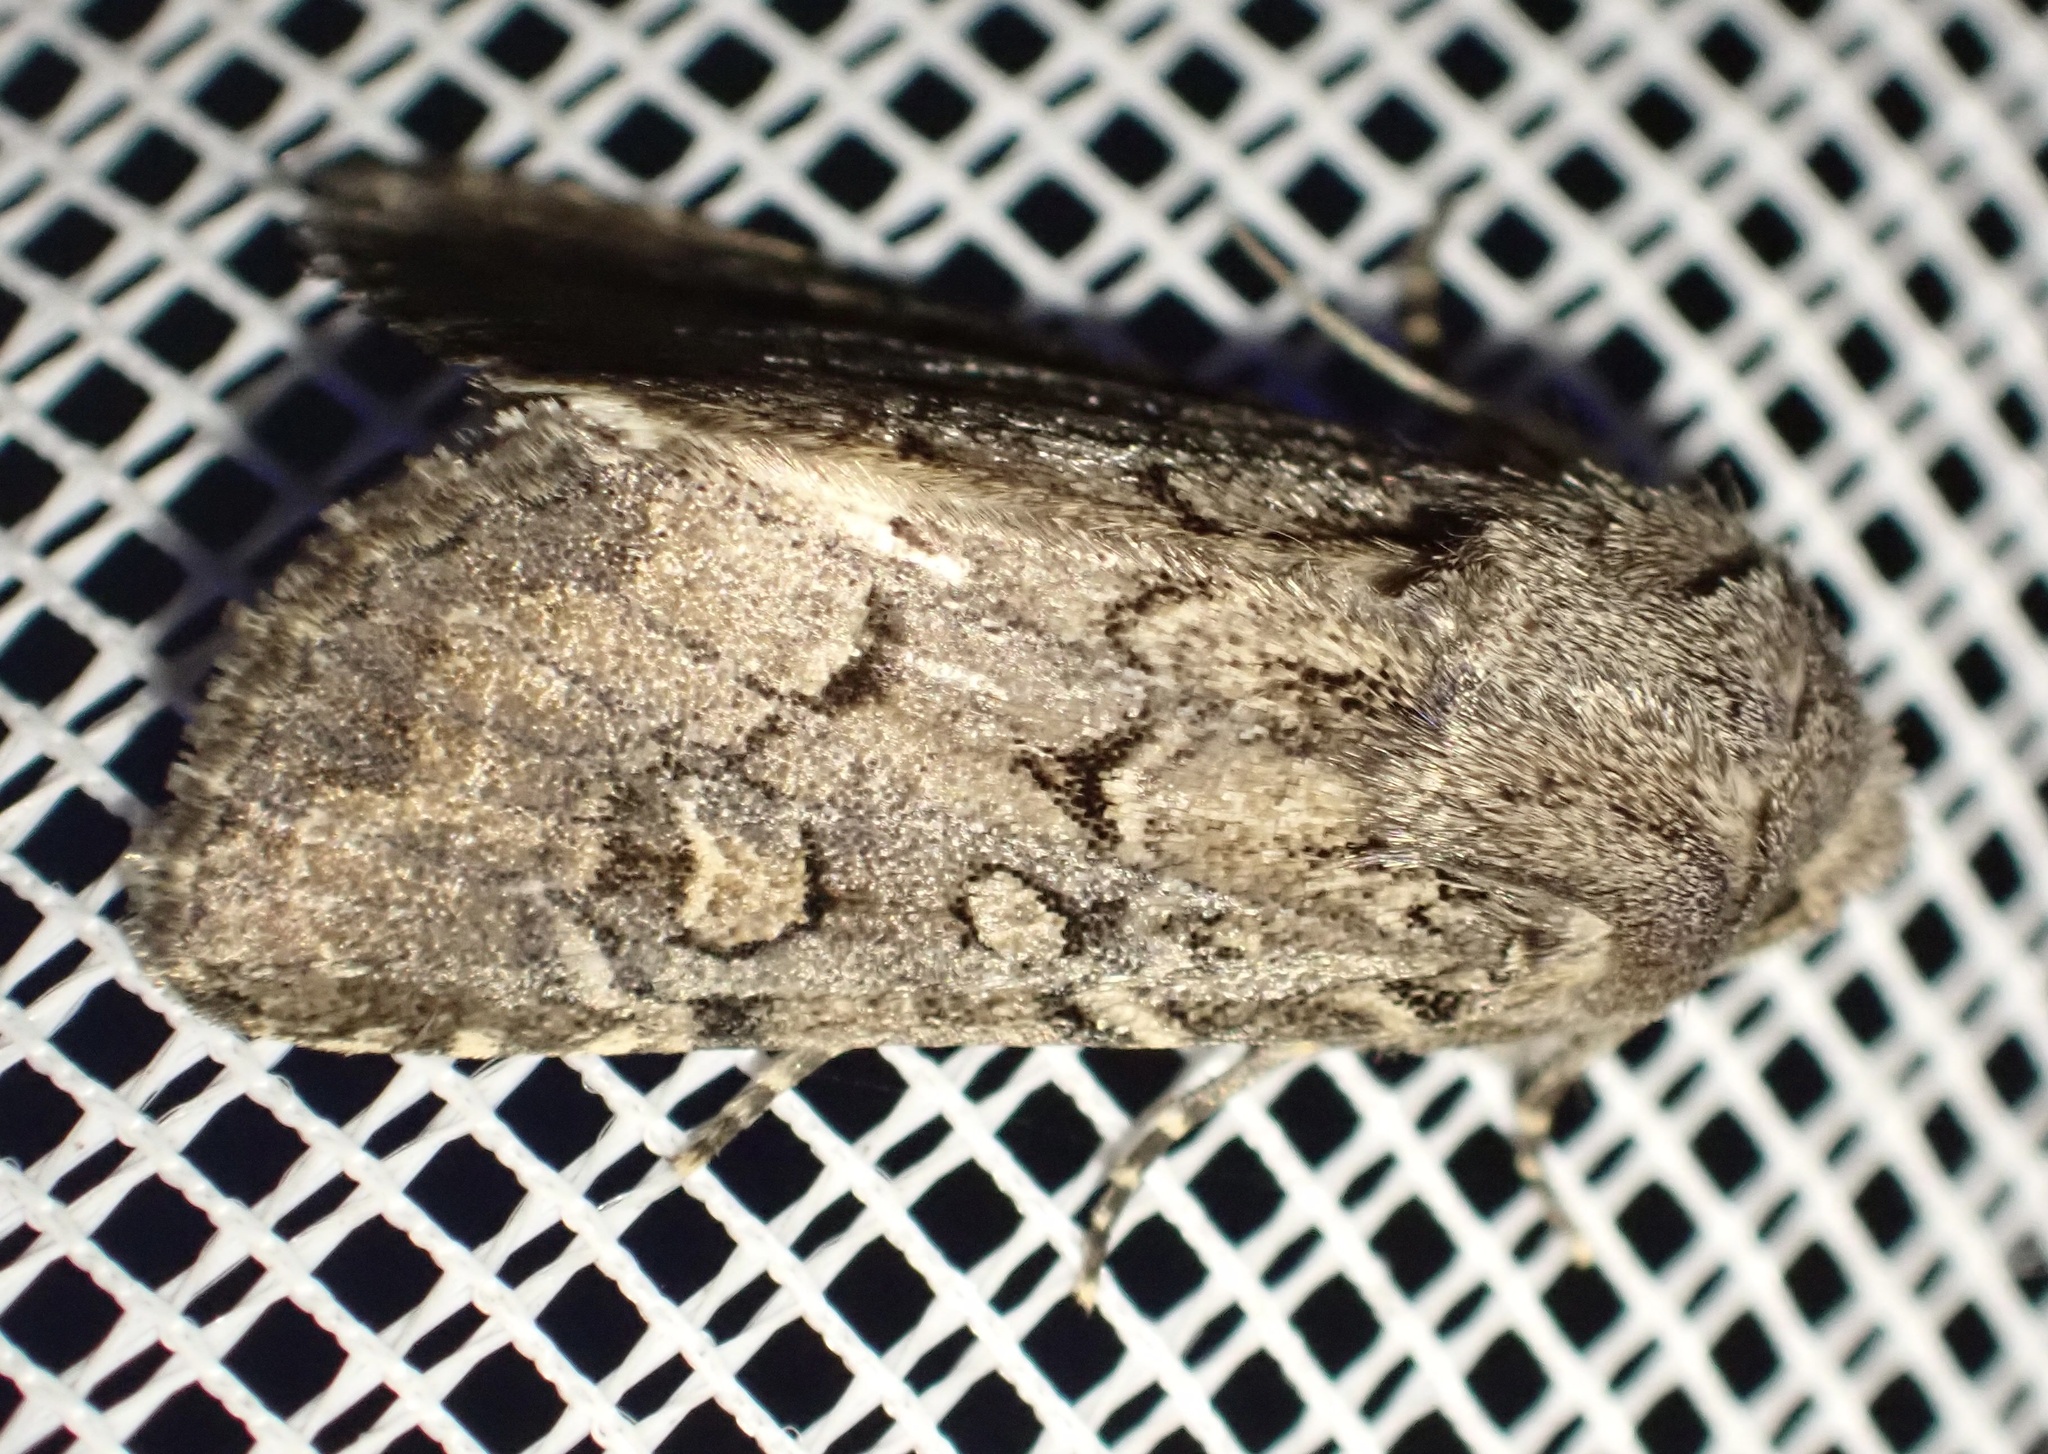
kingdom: Animalia
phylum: Arthropoda
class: Insecta
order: Lepidoptera
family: Noctuidae
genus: Luperina
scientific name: Luperina testacea
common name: Flounced rustic
